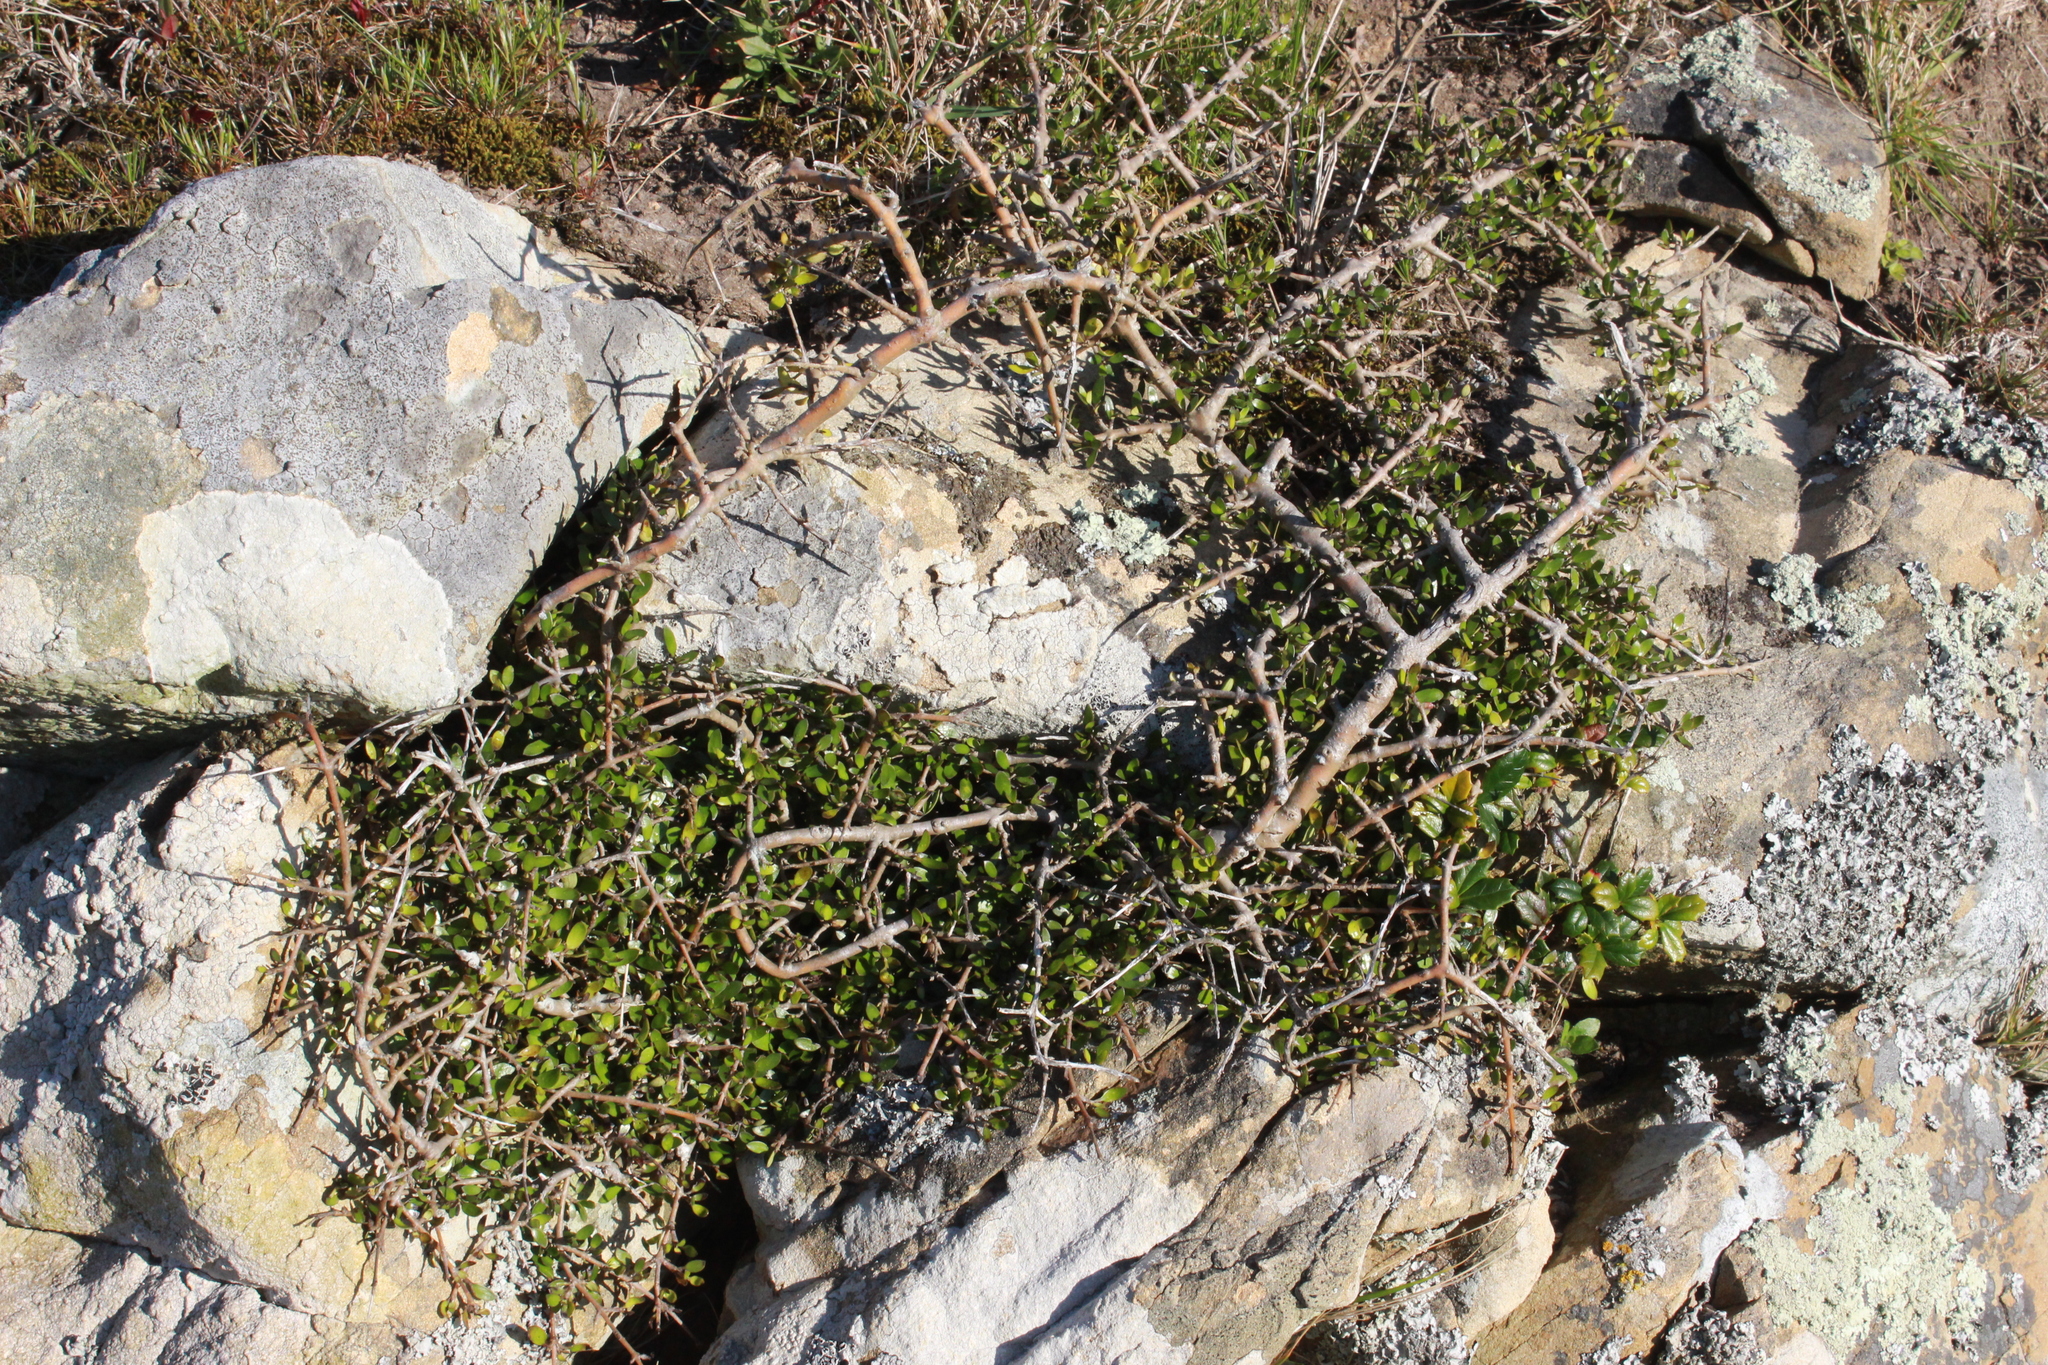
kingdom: Plantae
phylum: Tracheophyta
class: Magnoliopsida
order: Gentianales
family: Rubiaceae
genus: Coprosma
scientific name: Coprosma propinqua
